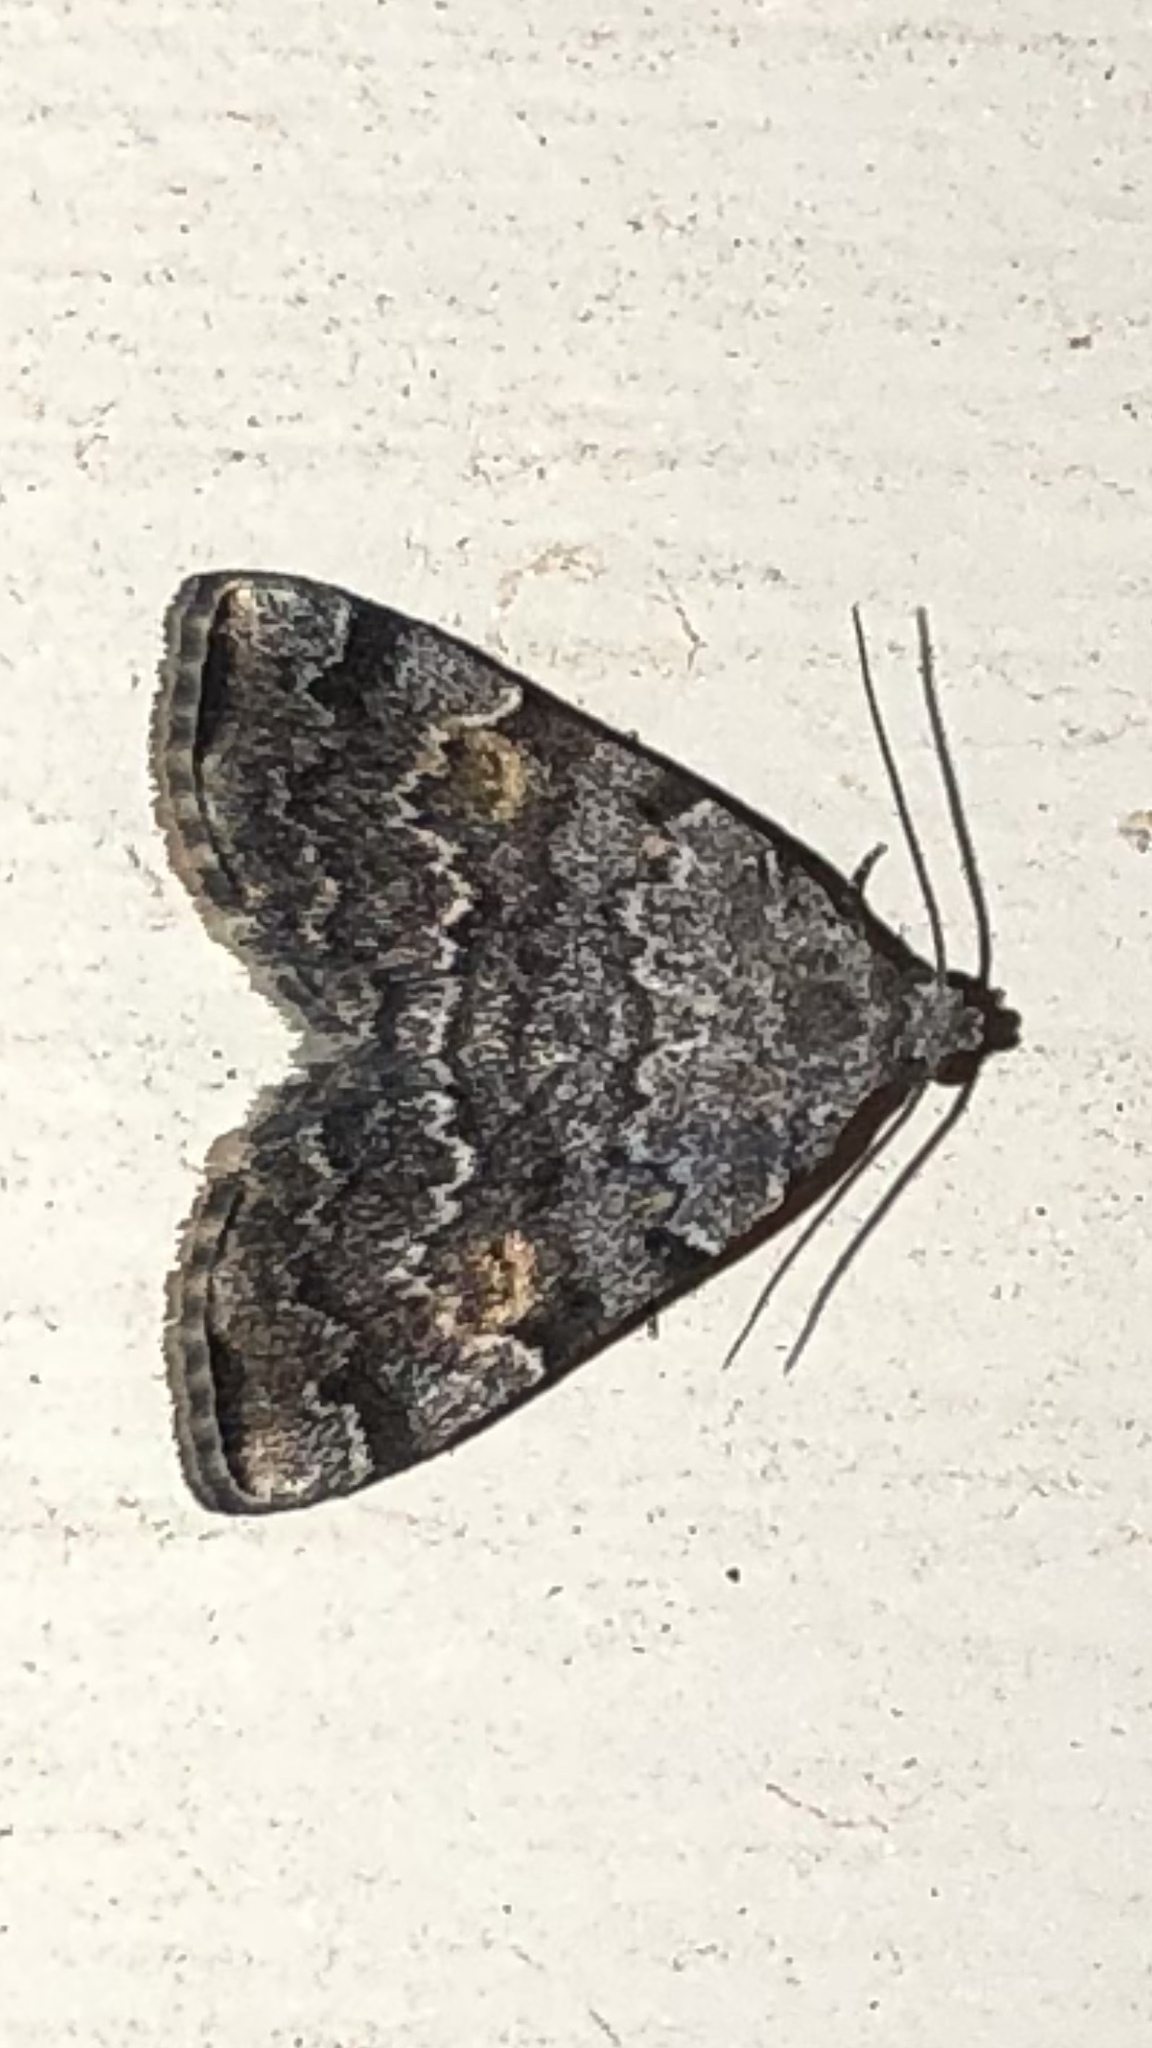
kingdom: Animalia
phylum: Arthropoda
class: Insecta
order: Lepidoptera
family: Erebidae
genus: Idia
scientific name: Idia americalis
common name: American idia moth
